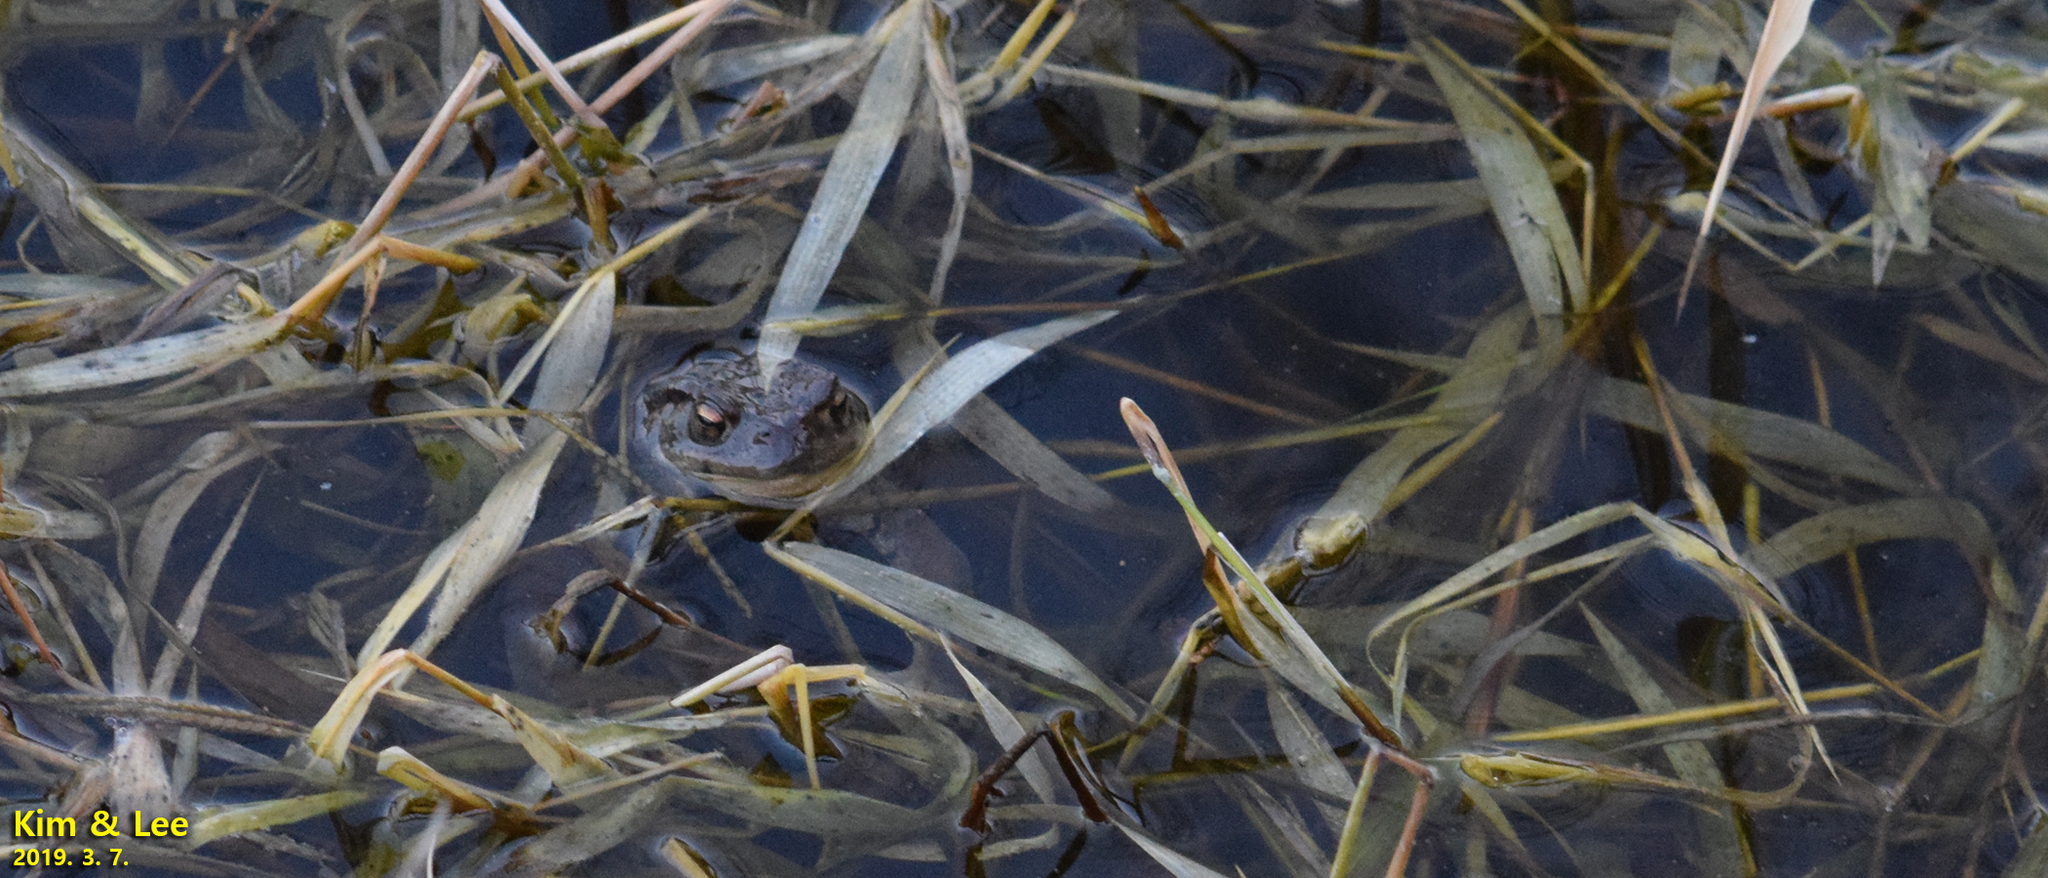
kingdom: Animalia
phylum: Chordata
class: Amphibia
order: Anura
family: Bufonidae
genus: Bufo
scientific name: Bufo gargarizans
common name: Asiatic toad
